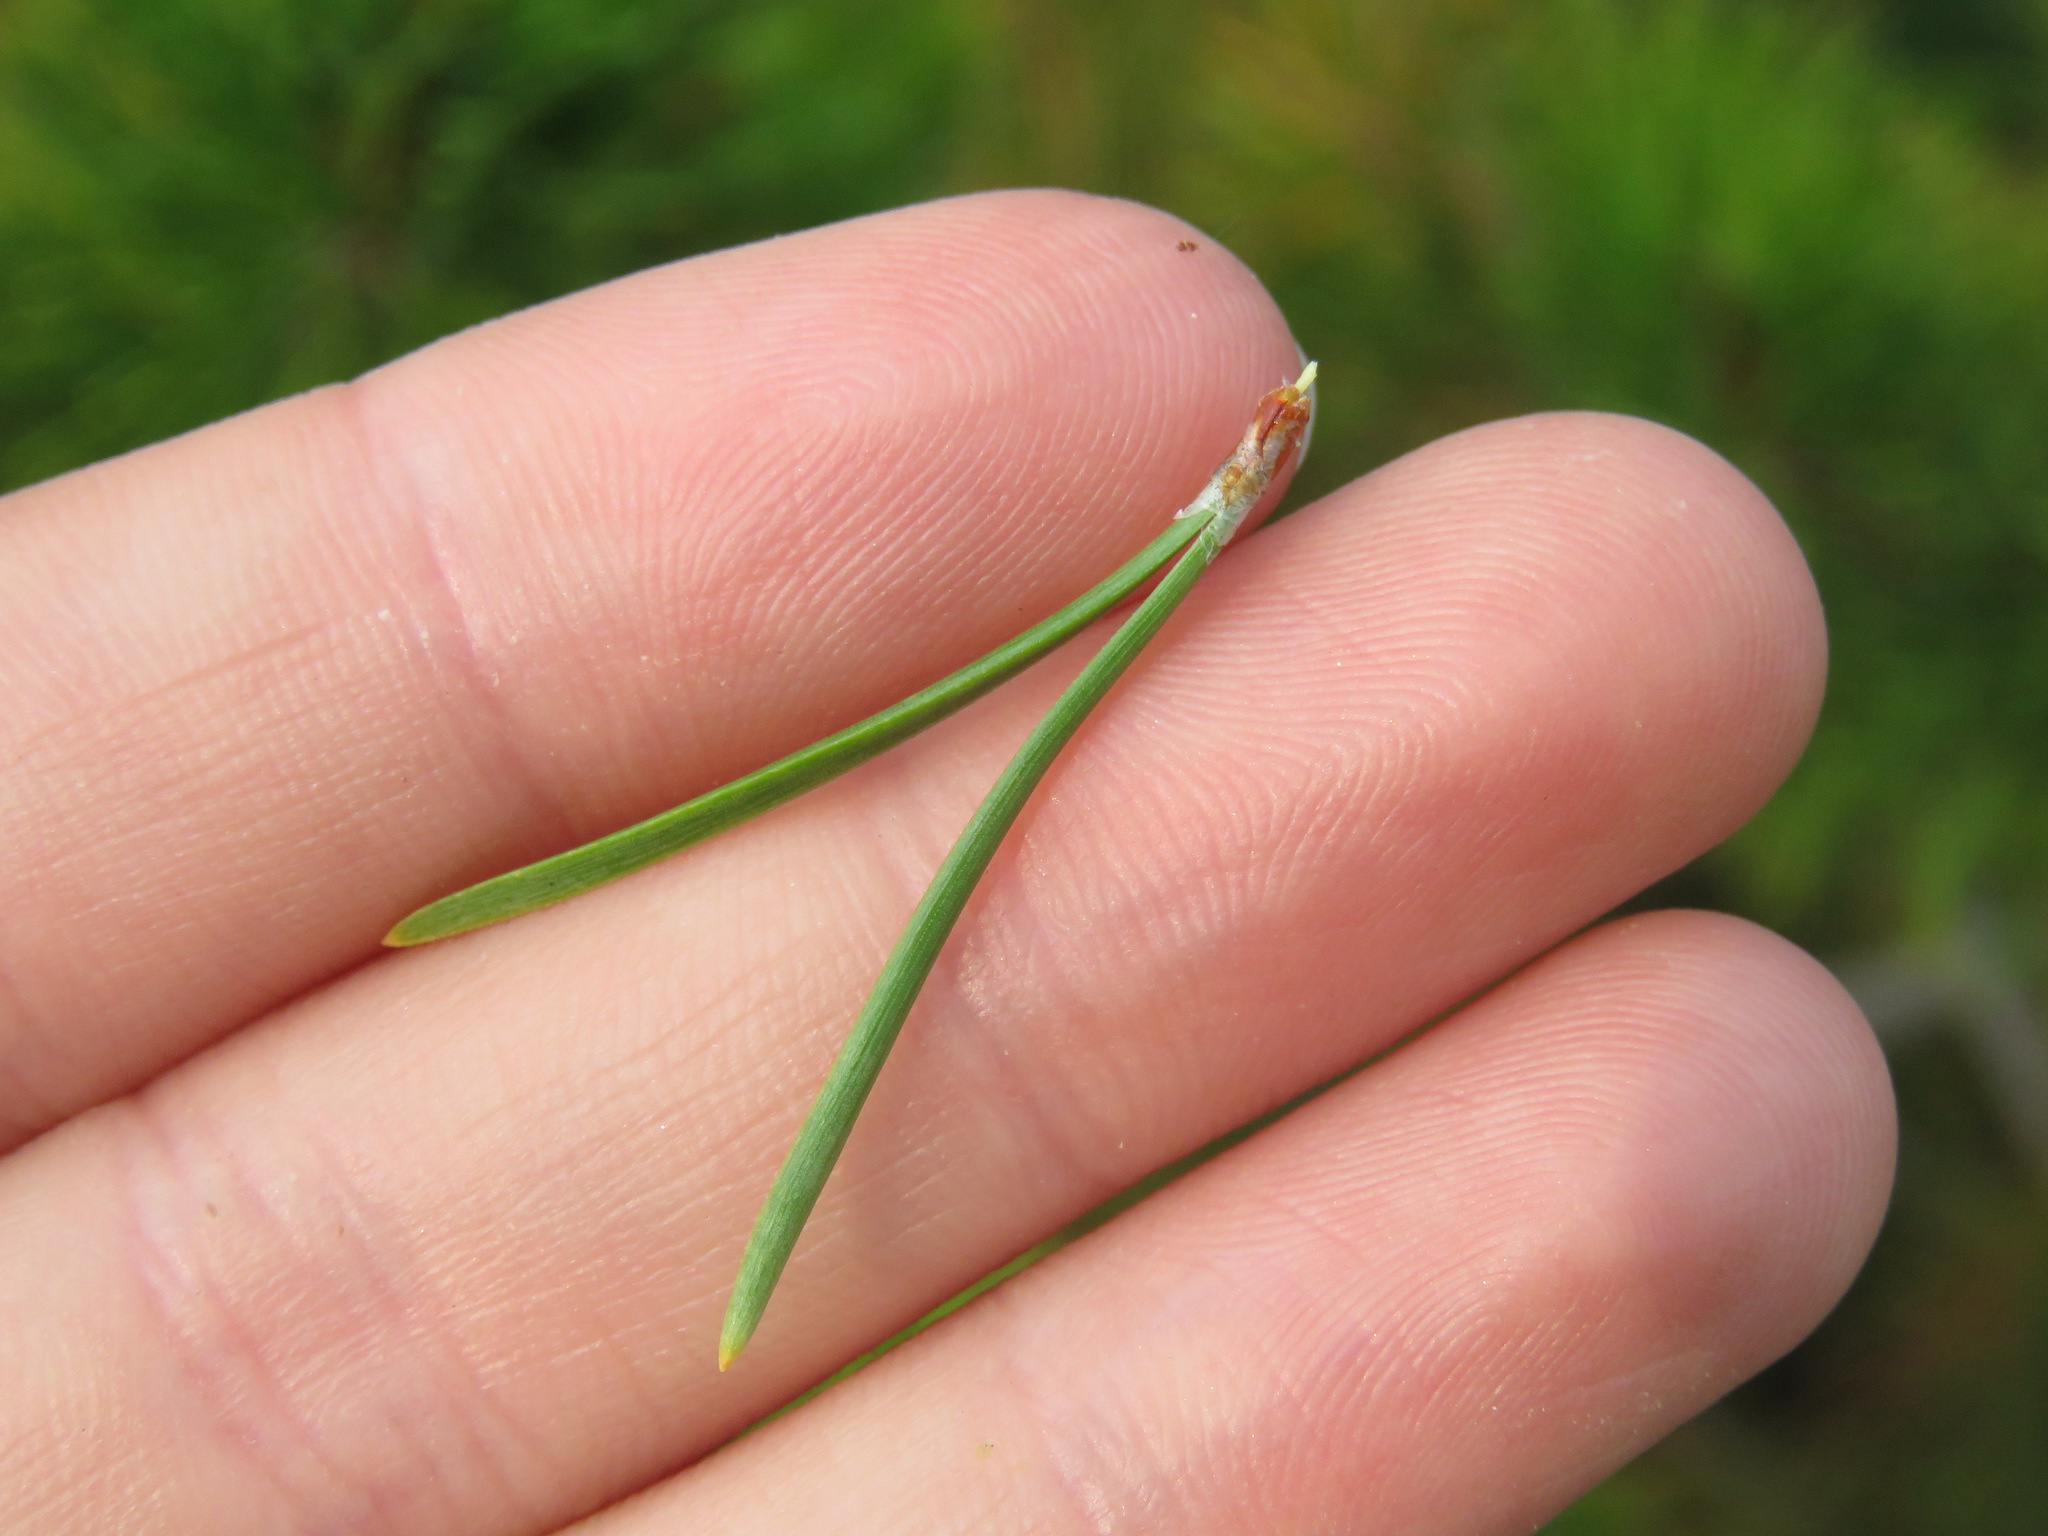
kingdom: Plantae
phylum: Tracheophyta
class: Pinopsida
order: Pinales
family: Pinaceae
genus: Pinus
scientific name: Pinus contorta
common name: Lodgepole pine
